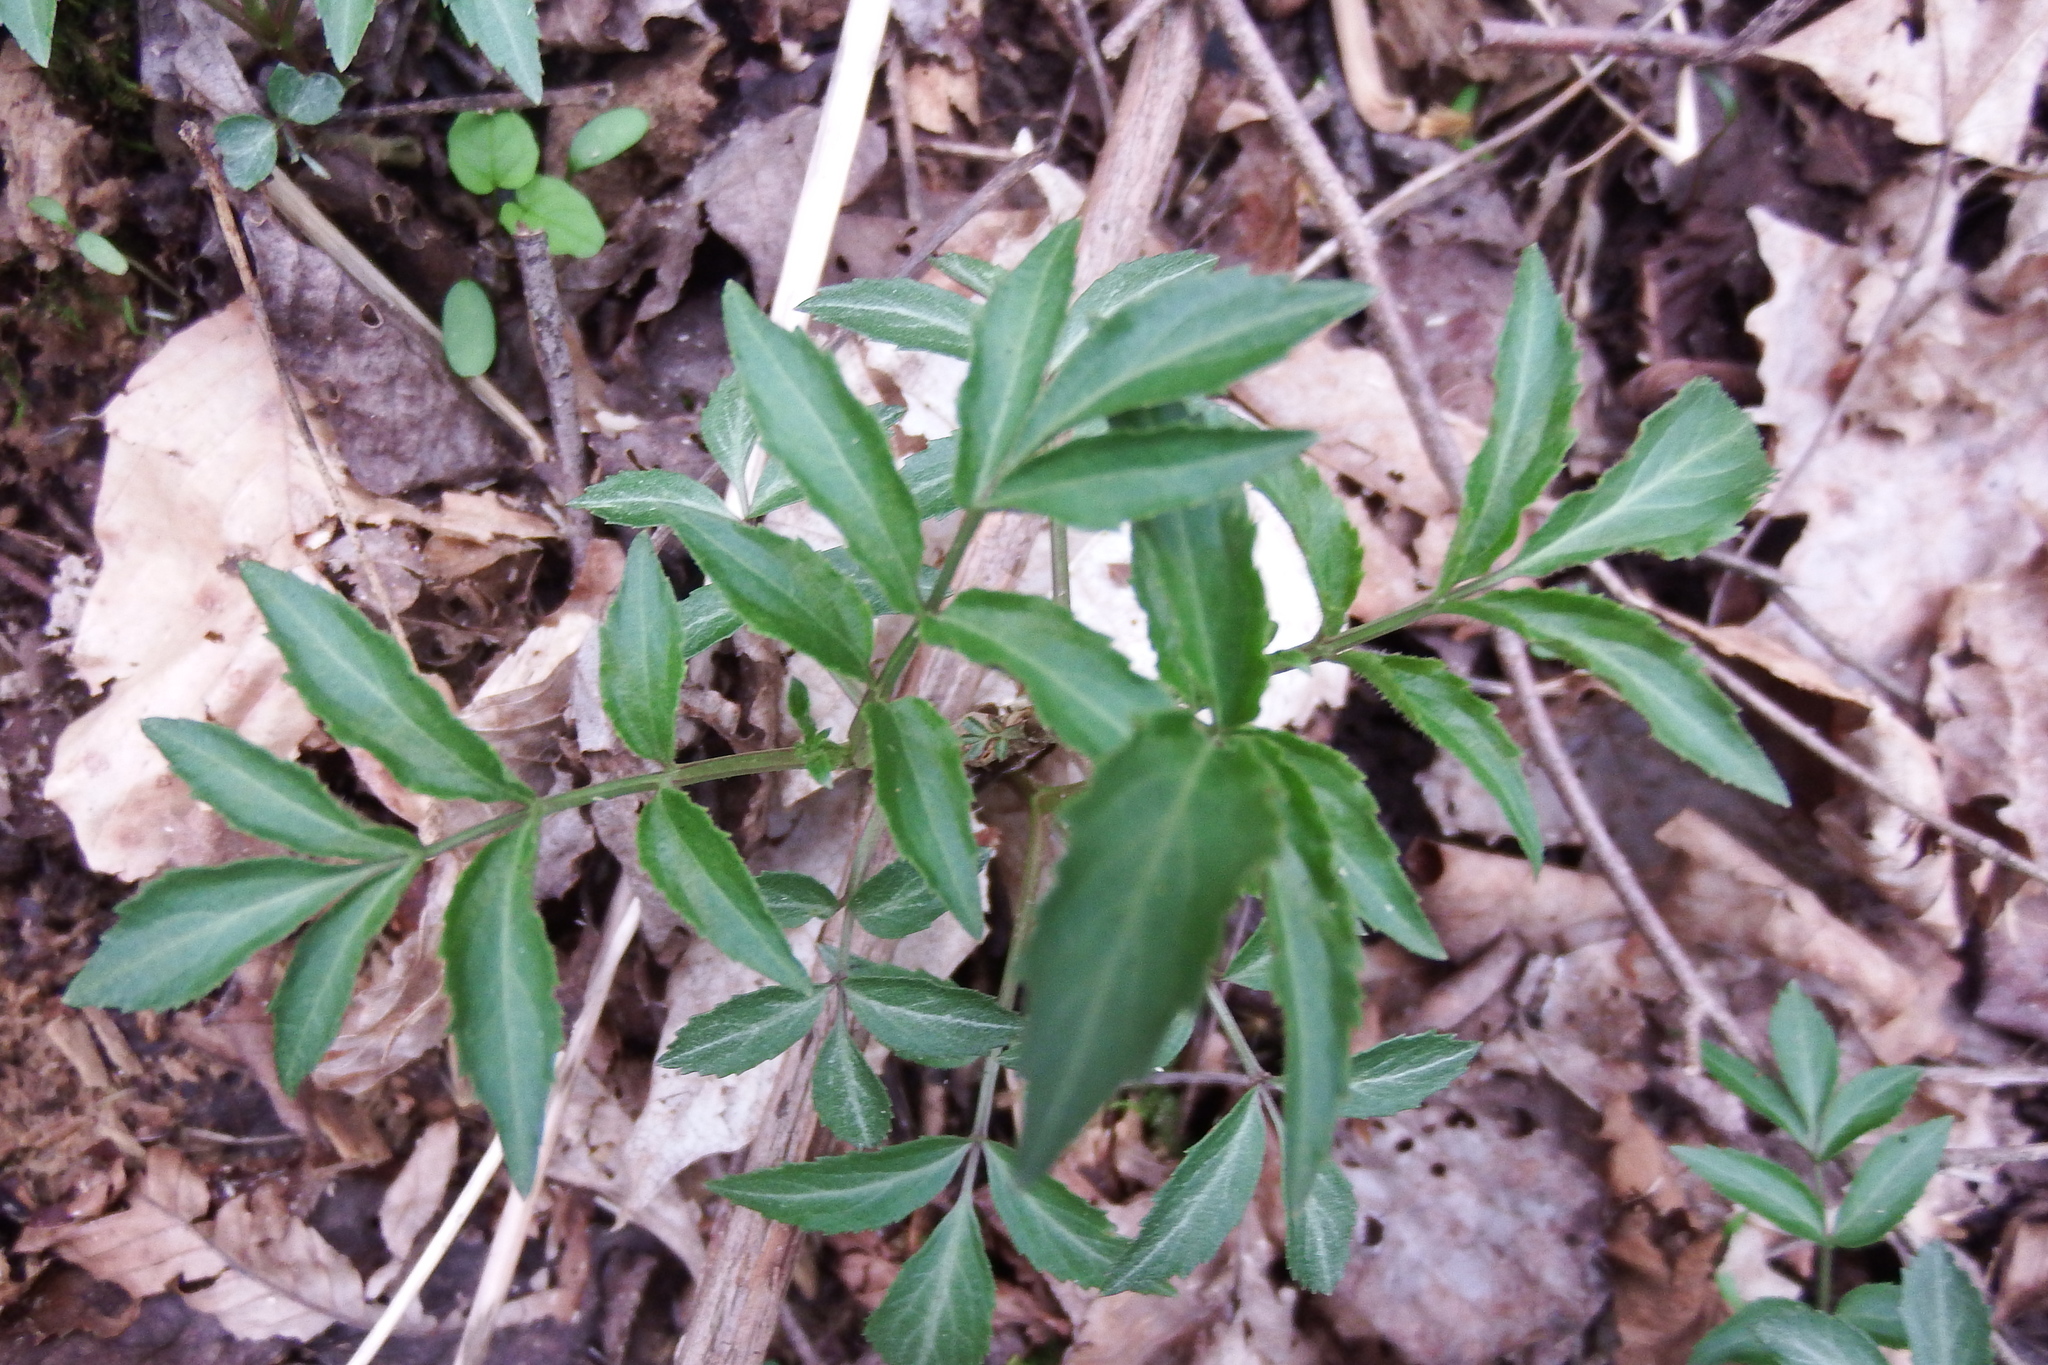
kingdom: Plantae
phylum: Tracheophyta
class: Magnoliopsida
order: Dipsacales
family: Viburnaceae
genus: Sambucus
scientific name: Sambucus canadensis
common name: American elder
